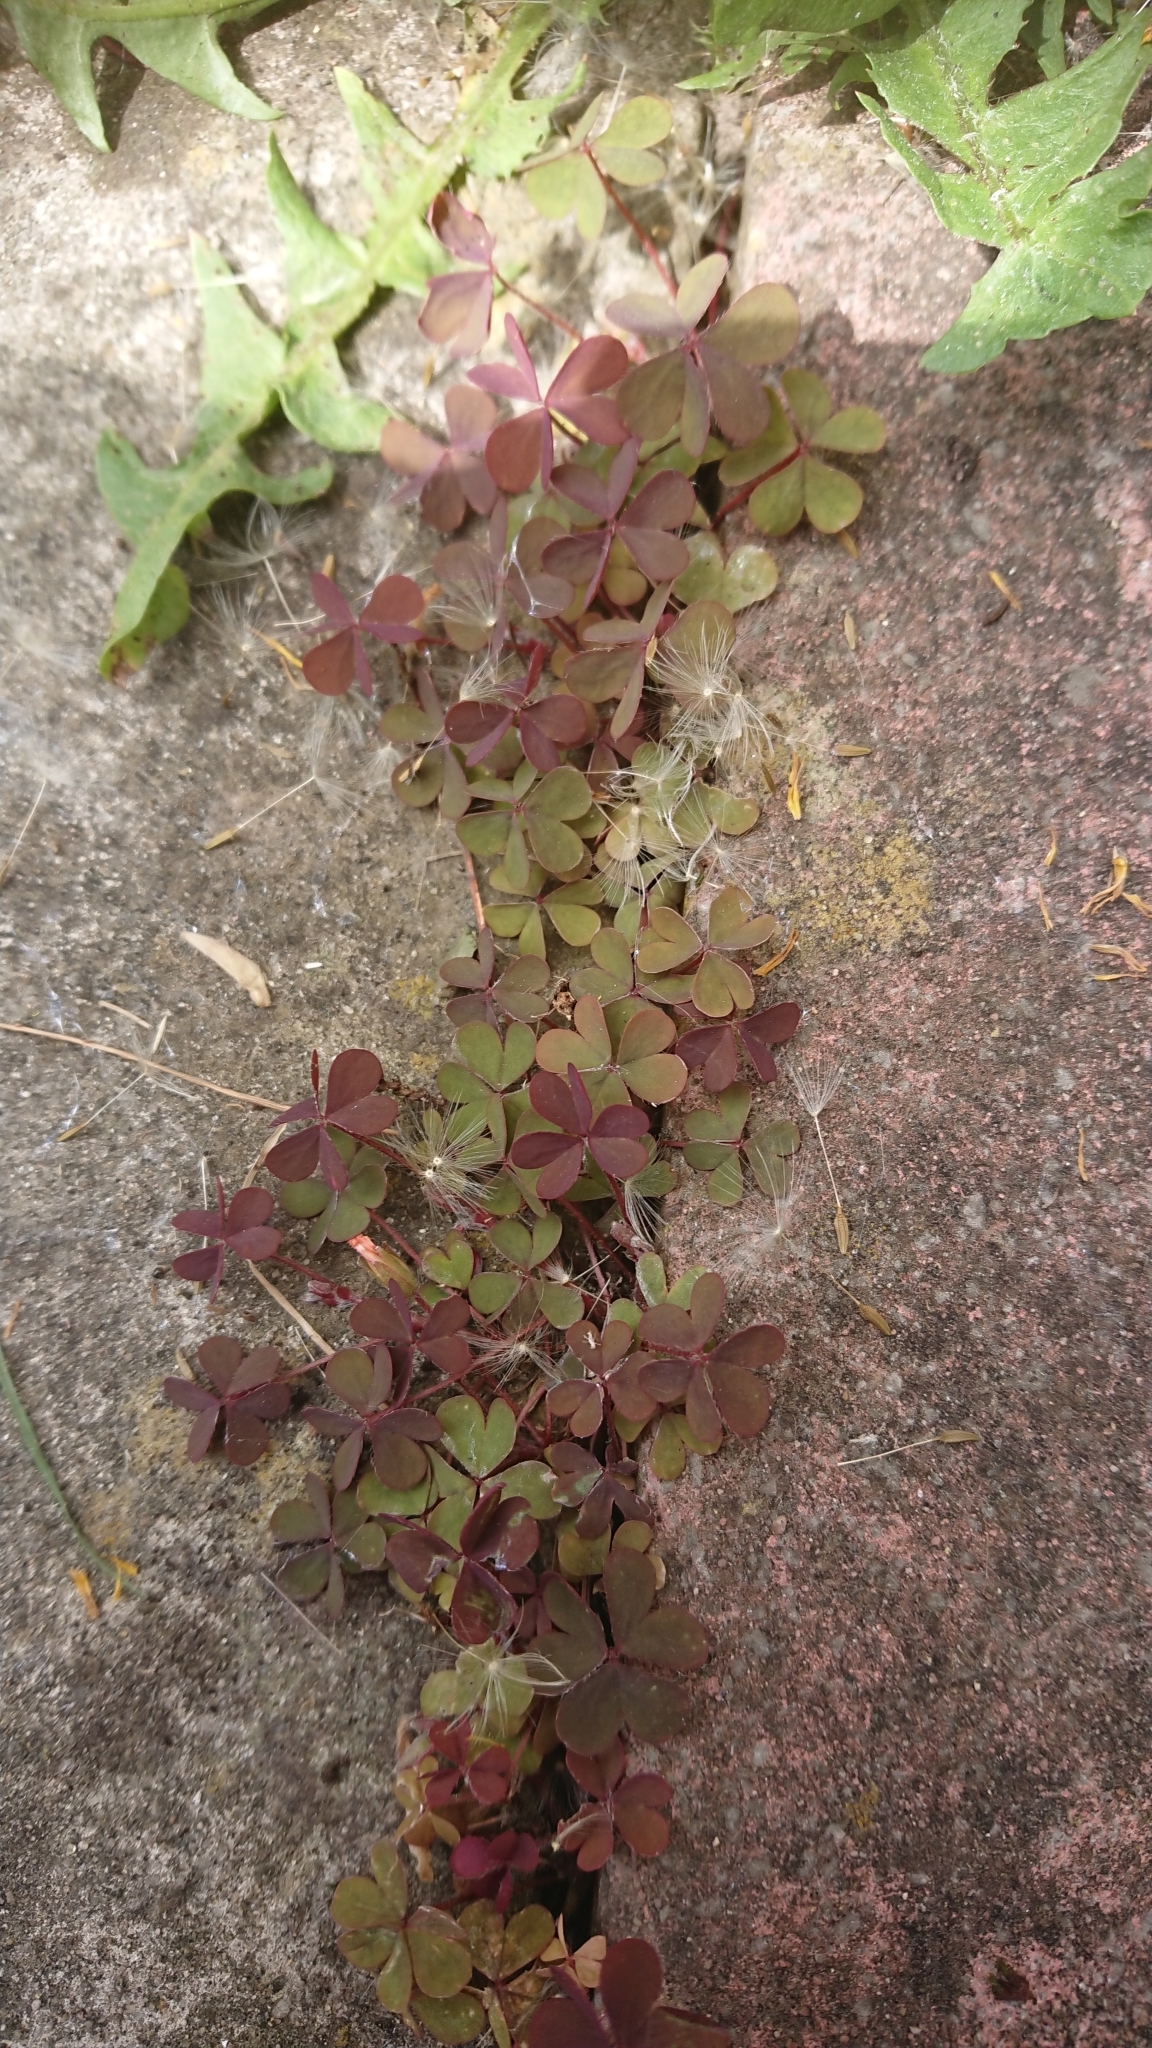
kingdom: Plantae
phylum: Tracheophyta
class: Magnoliopsida
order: Oxalidales
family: Oxalidaceae
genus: Oxalis
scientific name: Oxalis corniculata
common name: Procumbent yellow-sorrel
